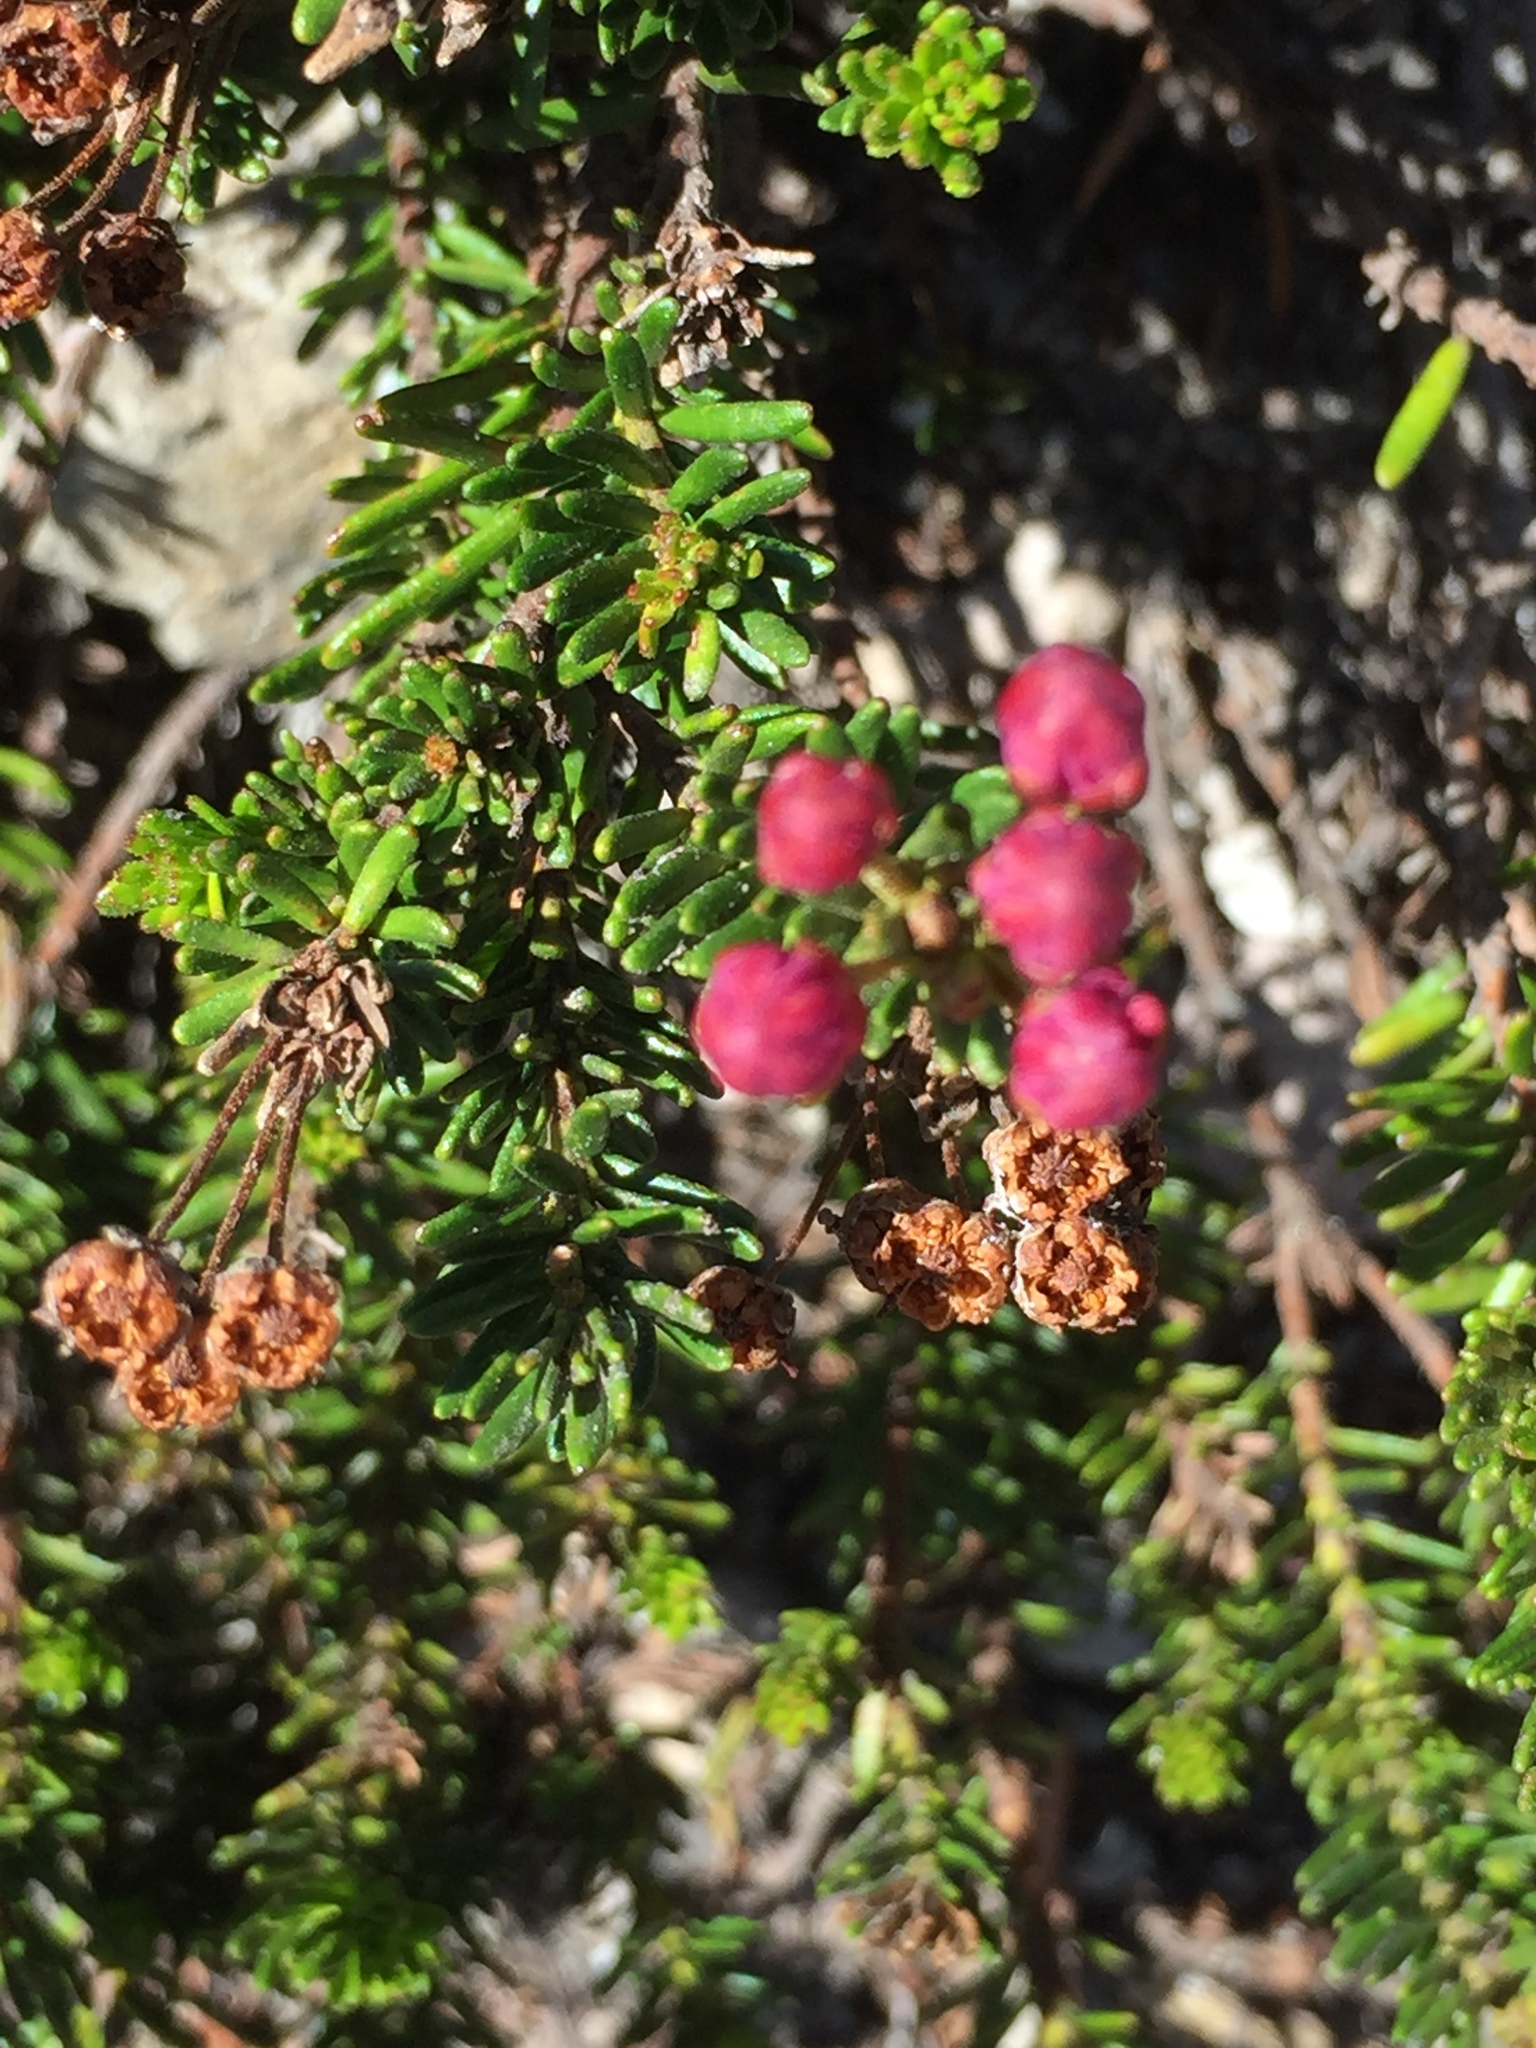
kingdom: Plantae
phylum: Tracheophyta
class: Magnoliopsida
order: Ericales
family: Ericaceae
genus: Phyllodoce
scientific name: Phyllodoce breweri
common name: Brewer's mountain-heather
